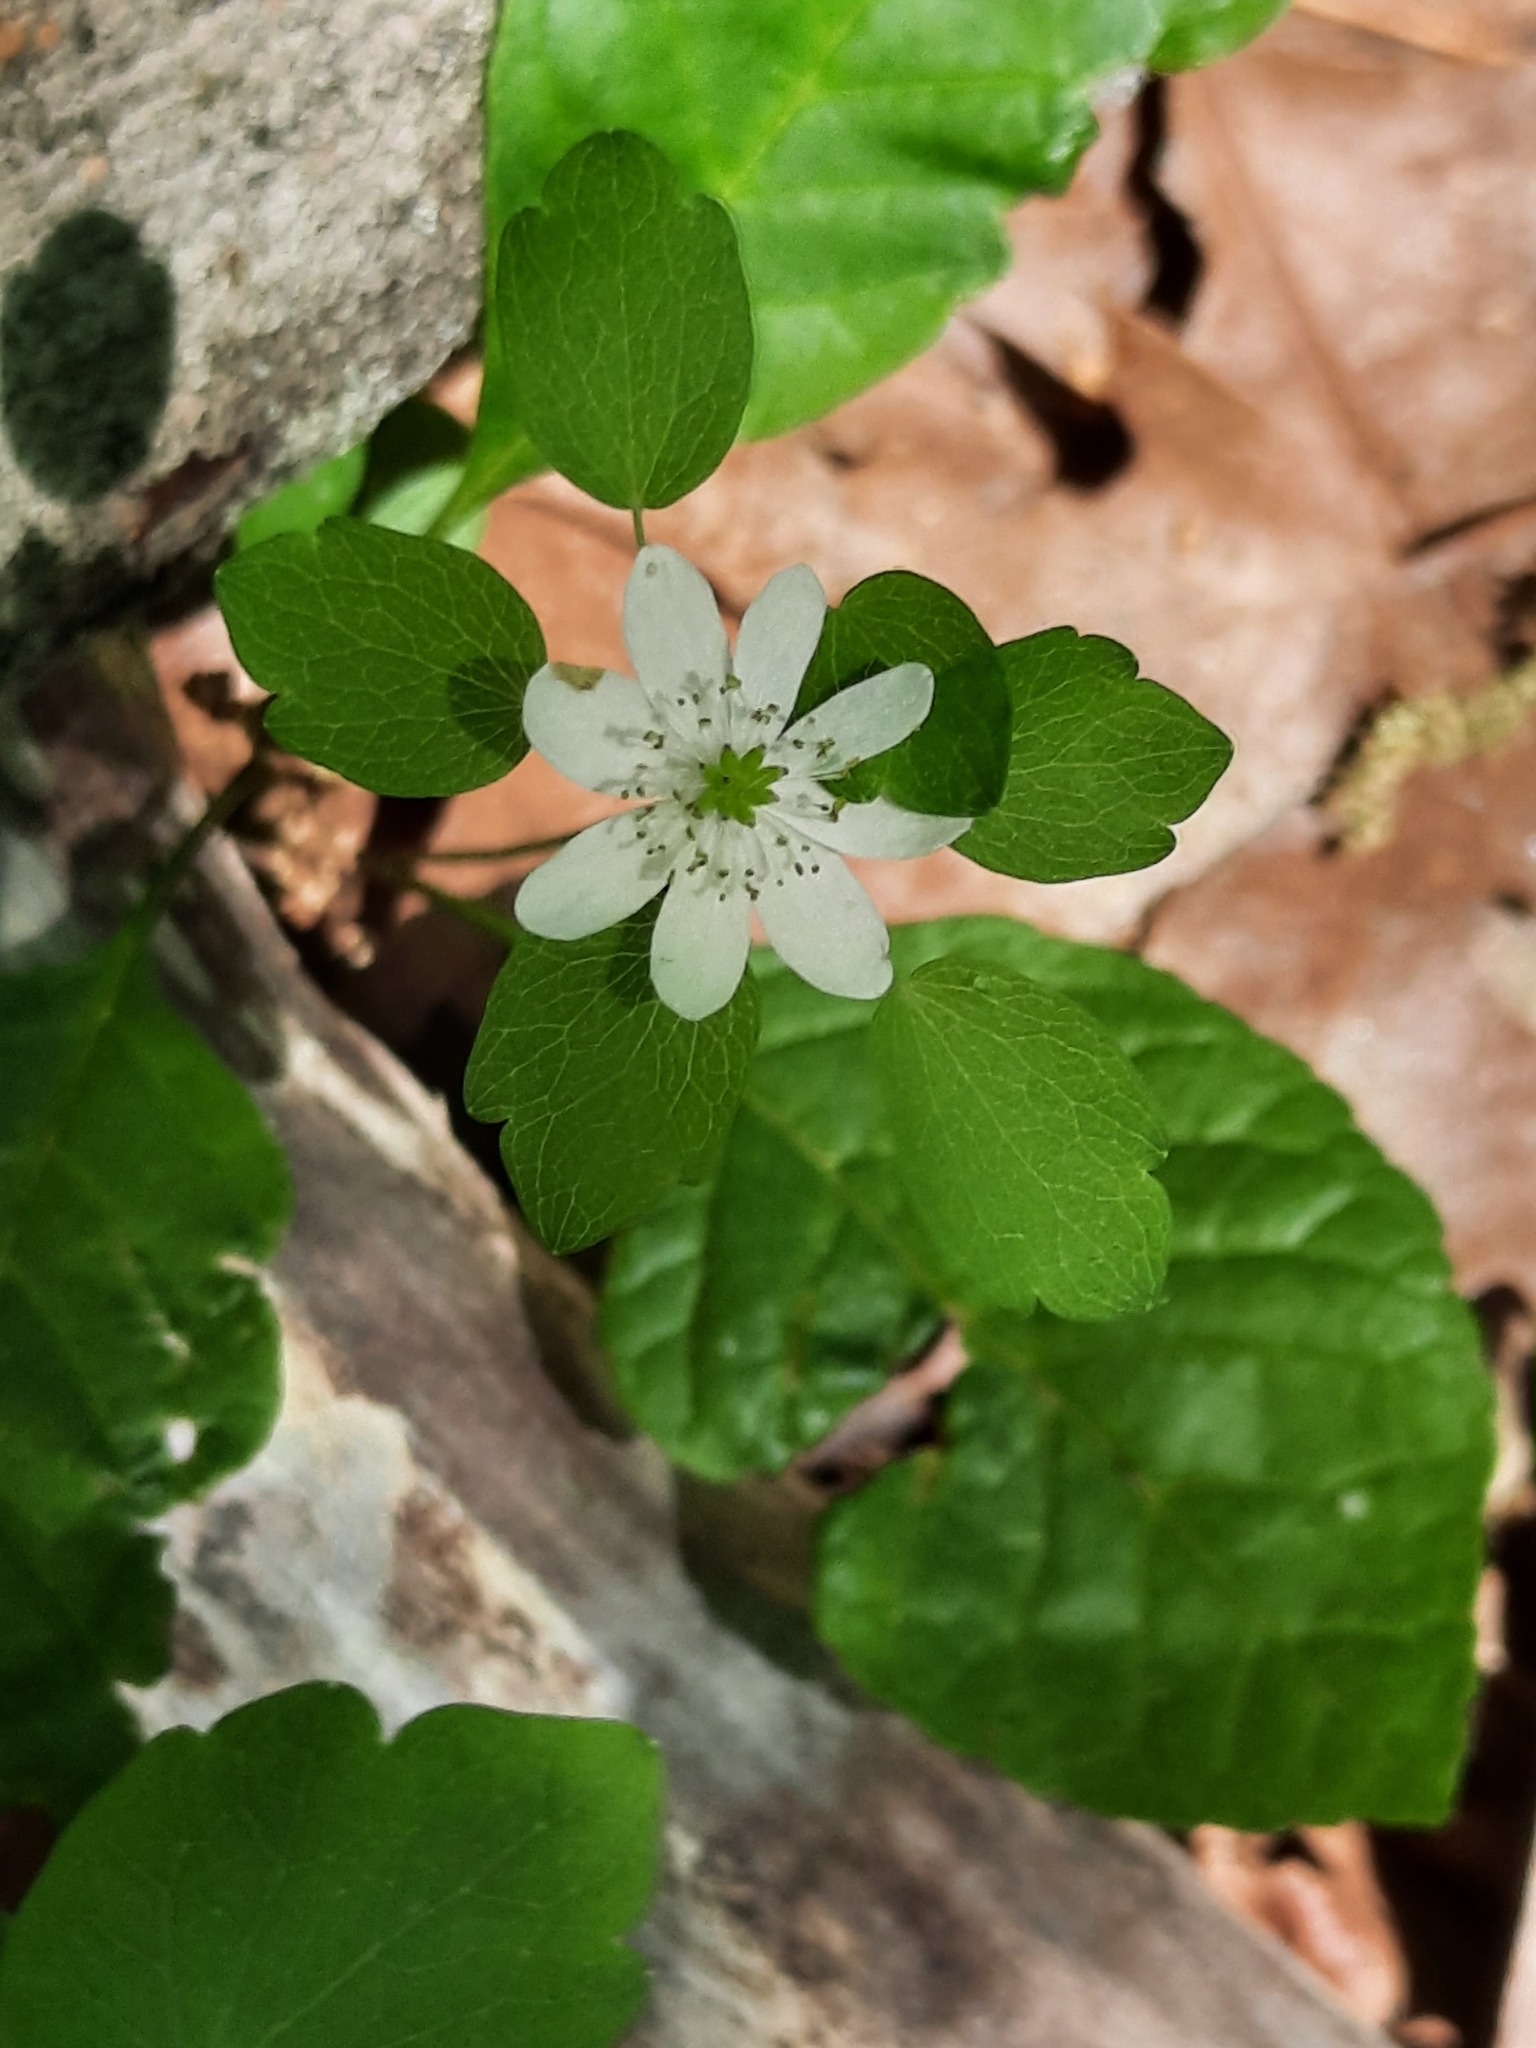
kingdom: Plantae
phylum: Tracheophyta
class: Magnoliopsida
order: Ranunculales
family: Ranunculaceae
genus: Thalictrum
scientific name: Thalictrum thalictroides
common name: Rue-anemone
